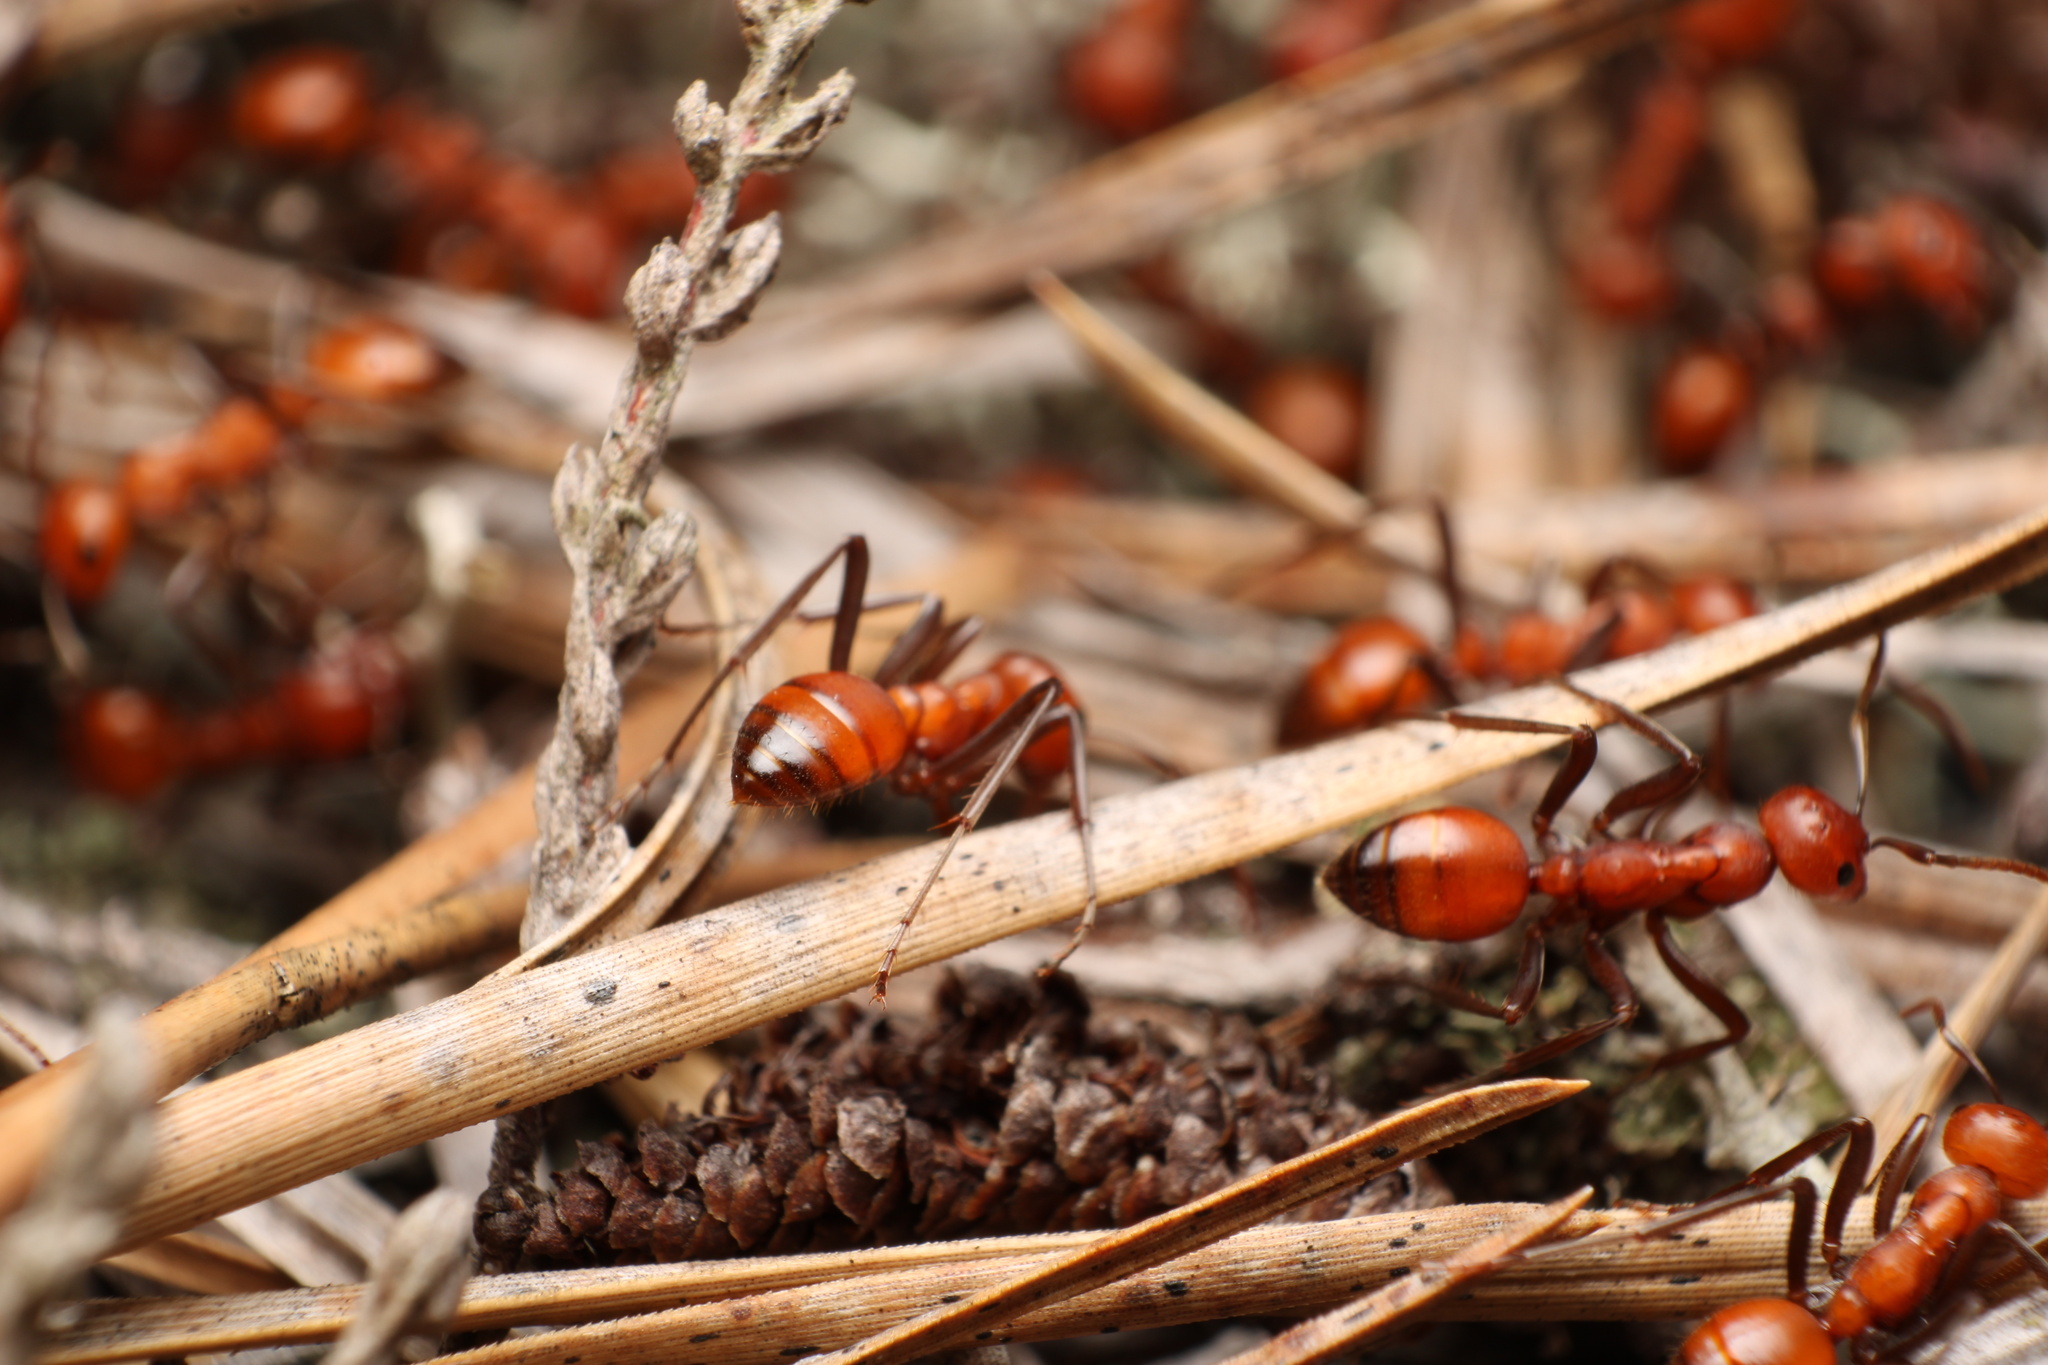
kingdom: Animalia
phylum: Arthropoda
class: Insecta
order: Hymenoptera
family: Formicidae
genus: Polyergus
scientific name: Polyergus sanwaldi
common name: Sanwald's amazon ant
